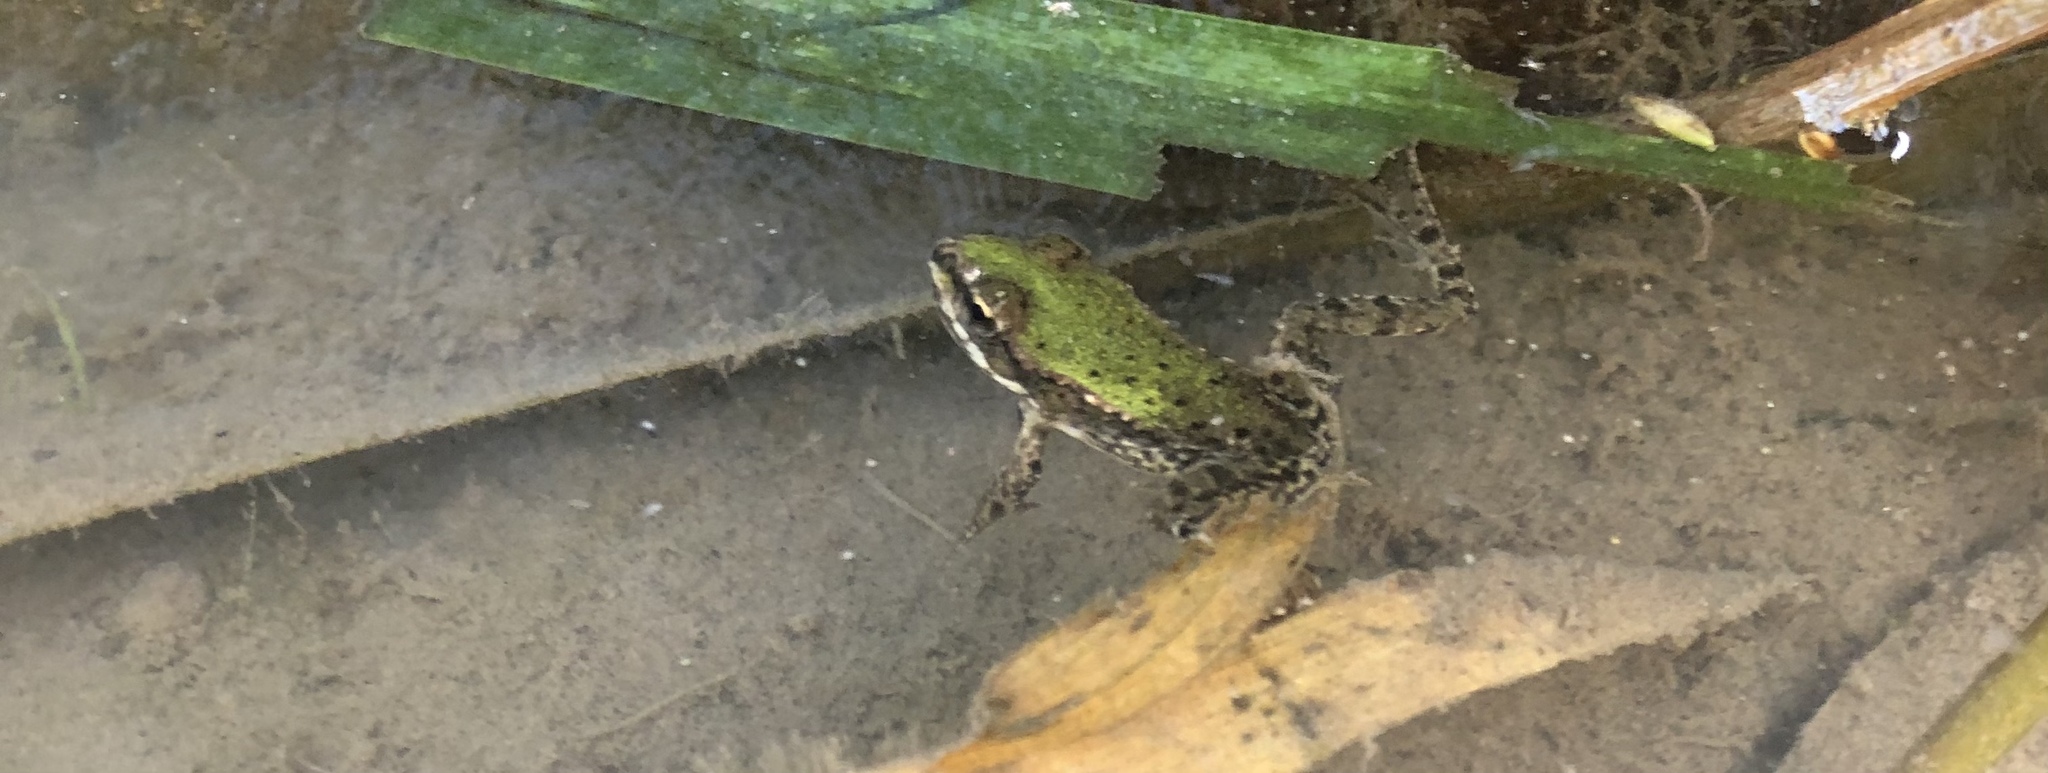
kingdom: Animalia
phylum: Chordata
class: Amphibia
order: Anura
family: Ranidae
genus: Pelophylax
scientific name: Pelophylax lessonae
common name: Pool frog
